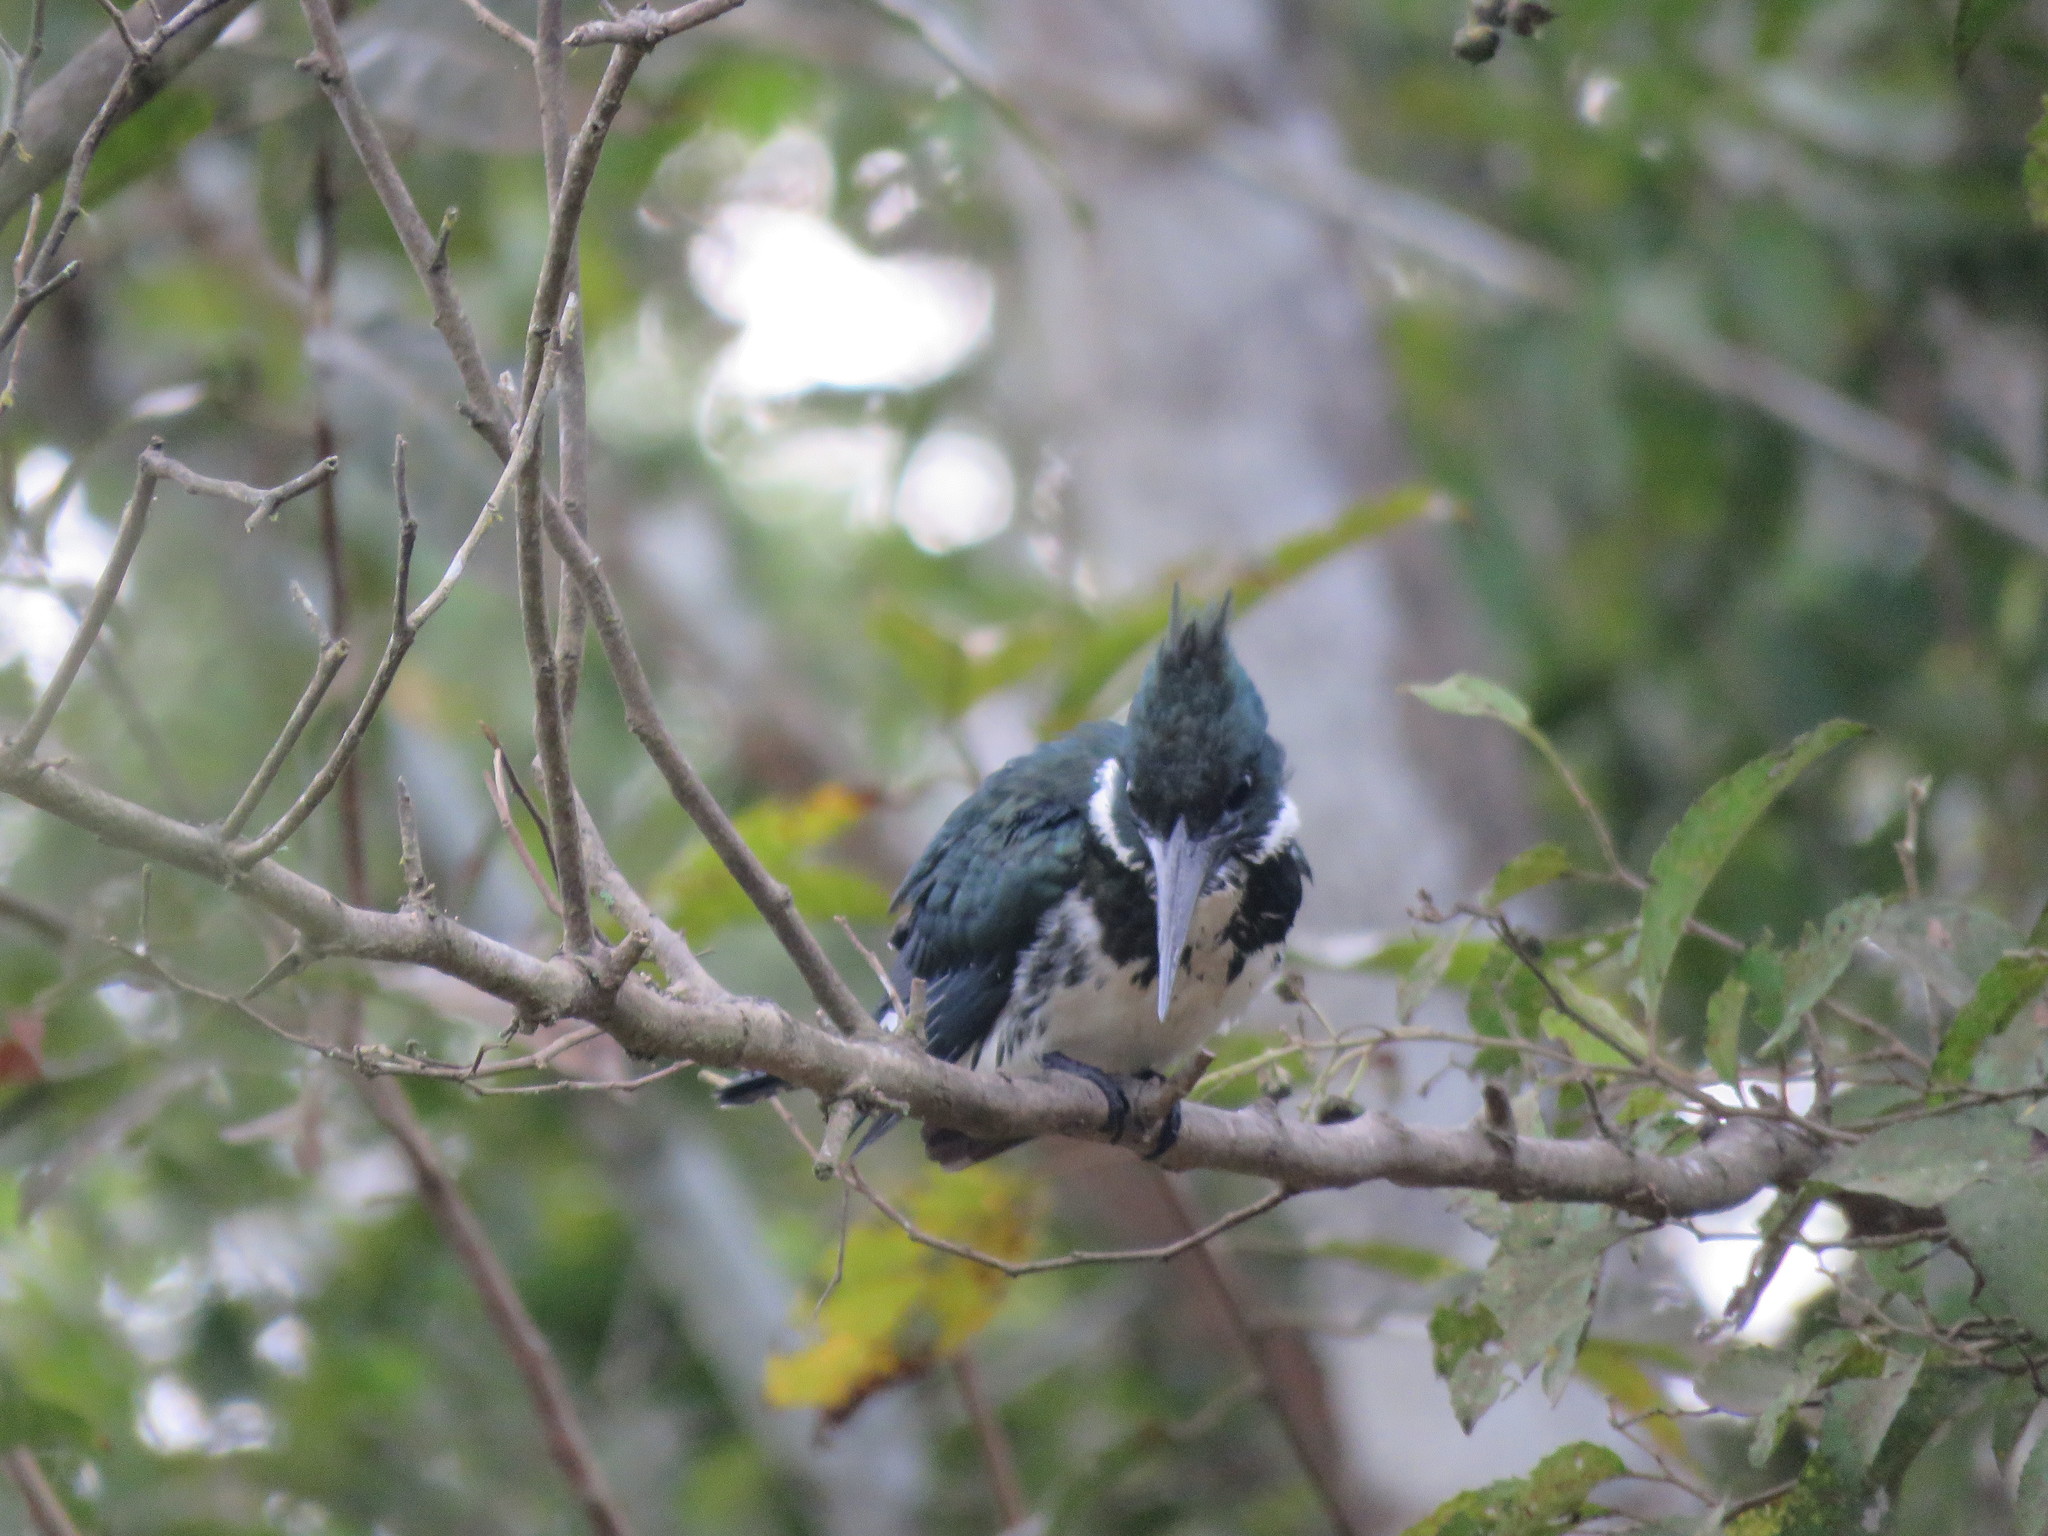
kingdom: Animalia
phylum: Chordata
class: Aves
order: Coraciiformes
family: Alcedinidae
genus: Chloroceryle
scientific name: Chloroceryle amazona
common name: Amazon kingfisher
